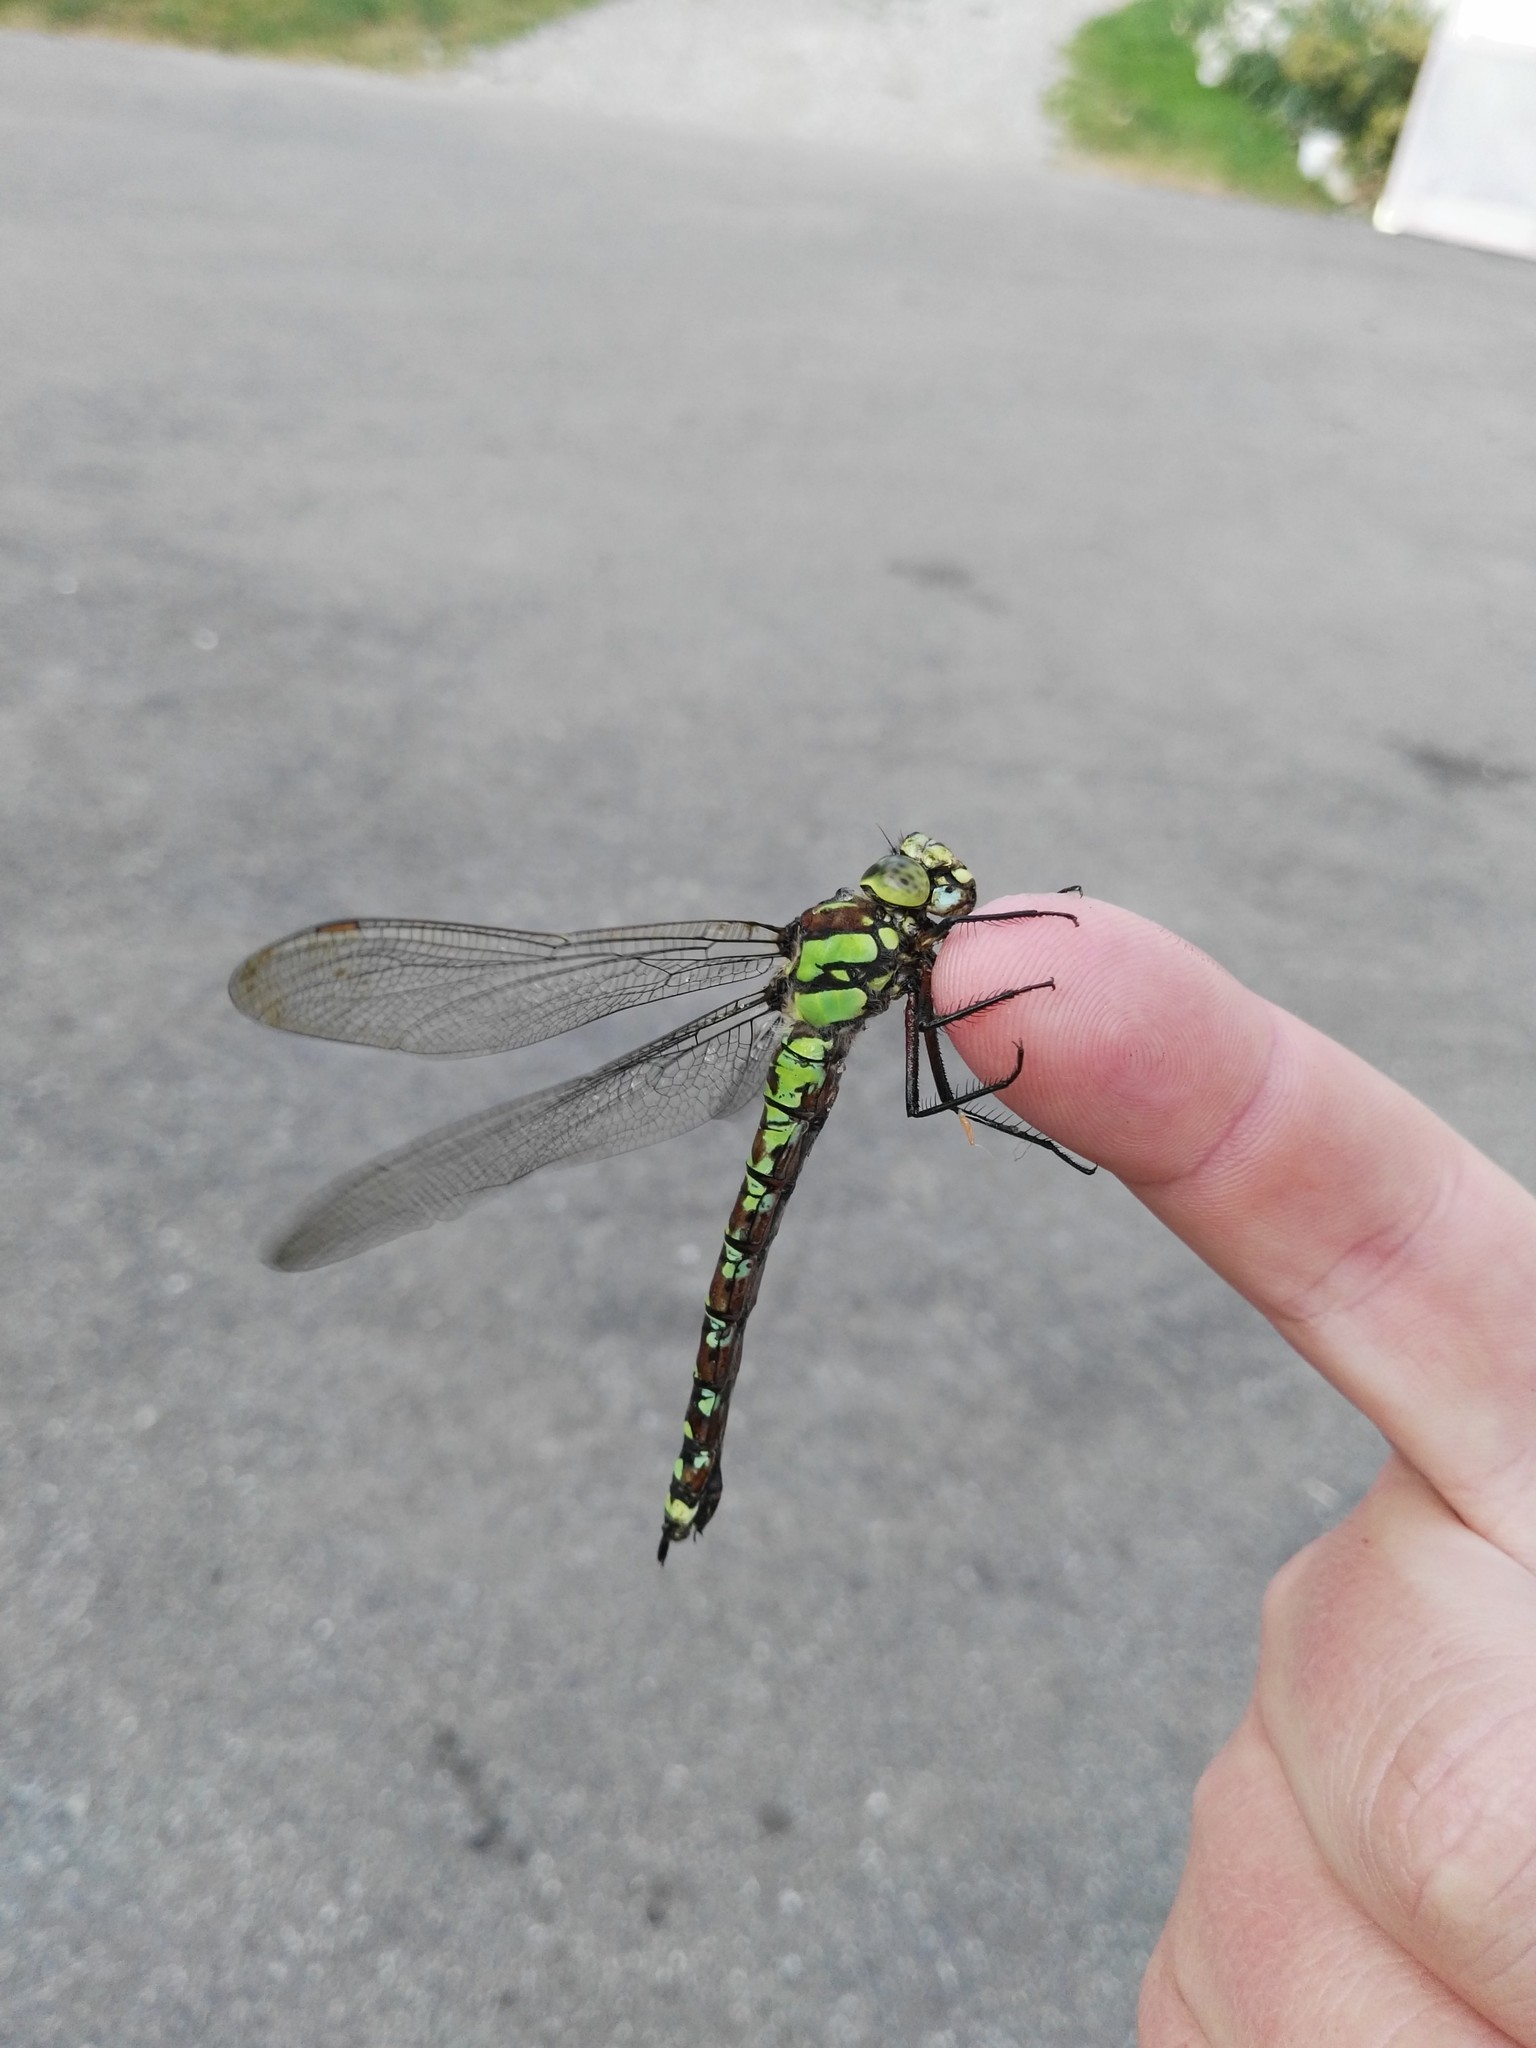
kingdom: Animalia
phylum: Arthropoda
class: Insecta
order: Odonata
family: Aeshnidae
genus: Aeshna
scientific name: Aeshna cyanea
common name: Southern hawker
